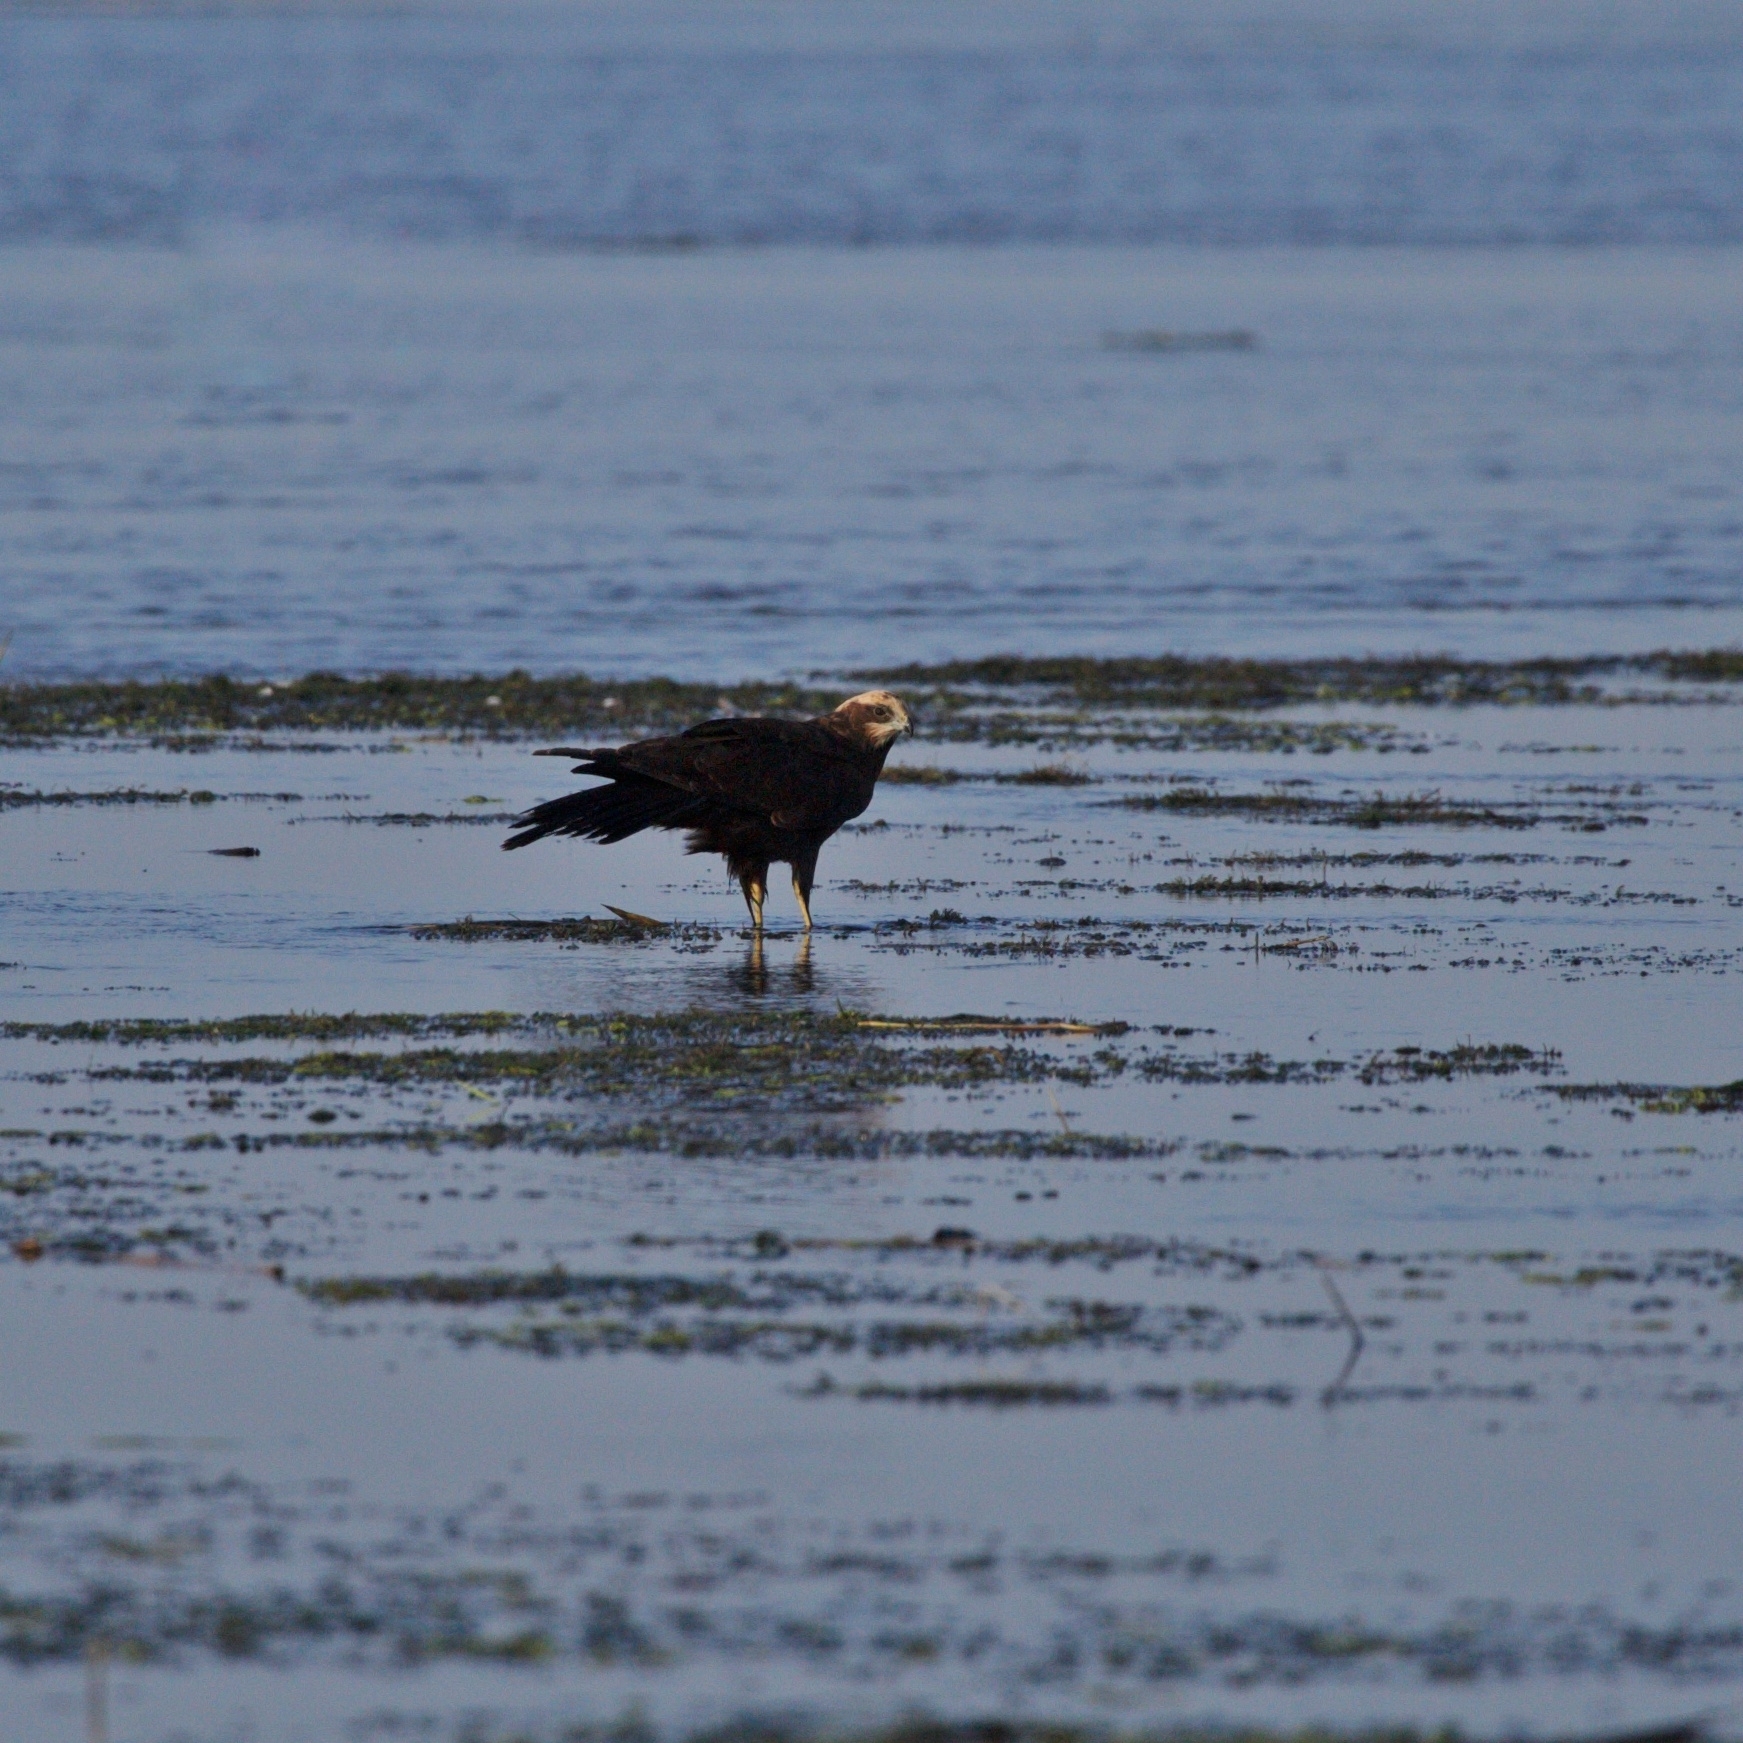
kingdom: Animalia
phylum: Chordata
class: Aves
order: Accipitriformes
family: Accipitridae
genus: Circus
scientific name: Circus aeruginosus
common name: Western marsh harrier
